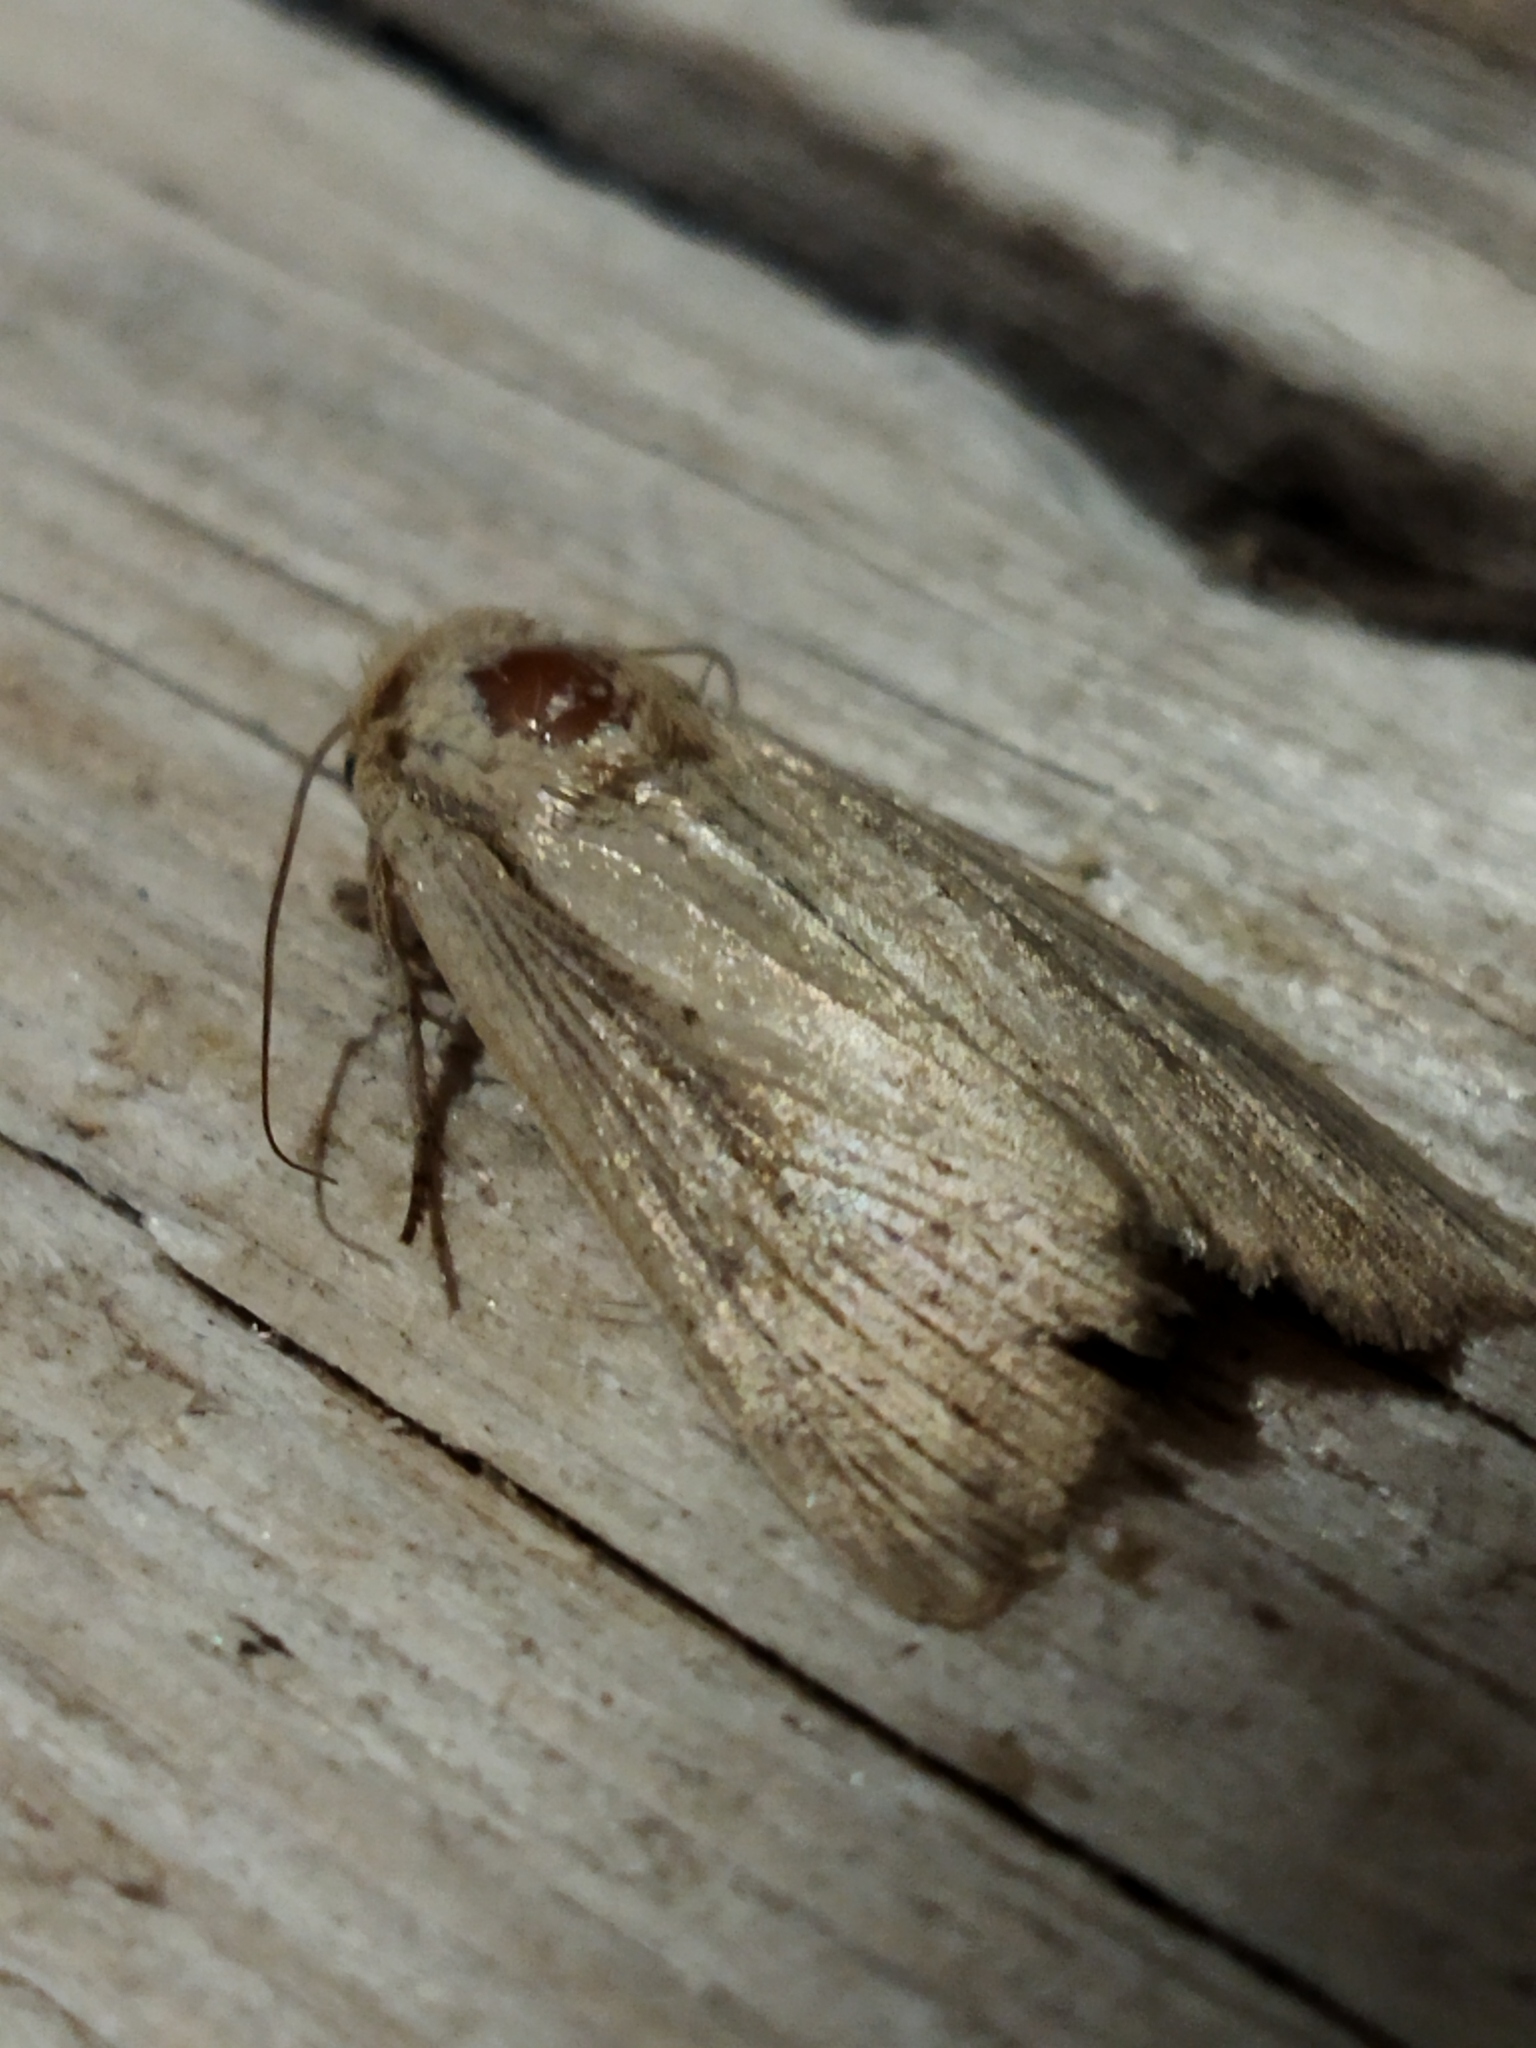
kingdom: Animalia
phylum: Arthropoda
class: Insecta
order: Lepidoptera
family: Noctuidae
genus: Leucania
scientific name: Leucania loreyi
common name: The cosmopolitan
